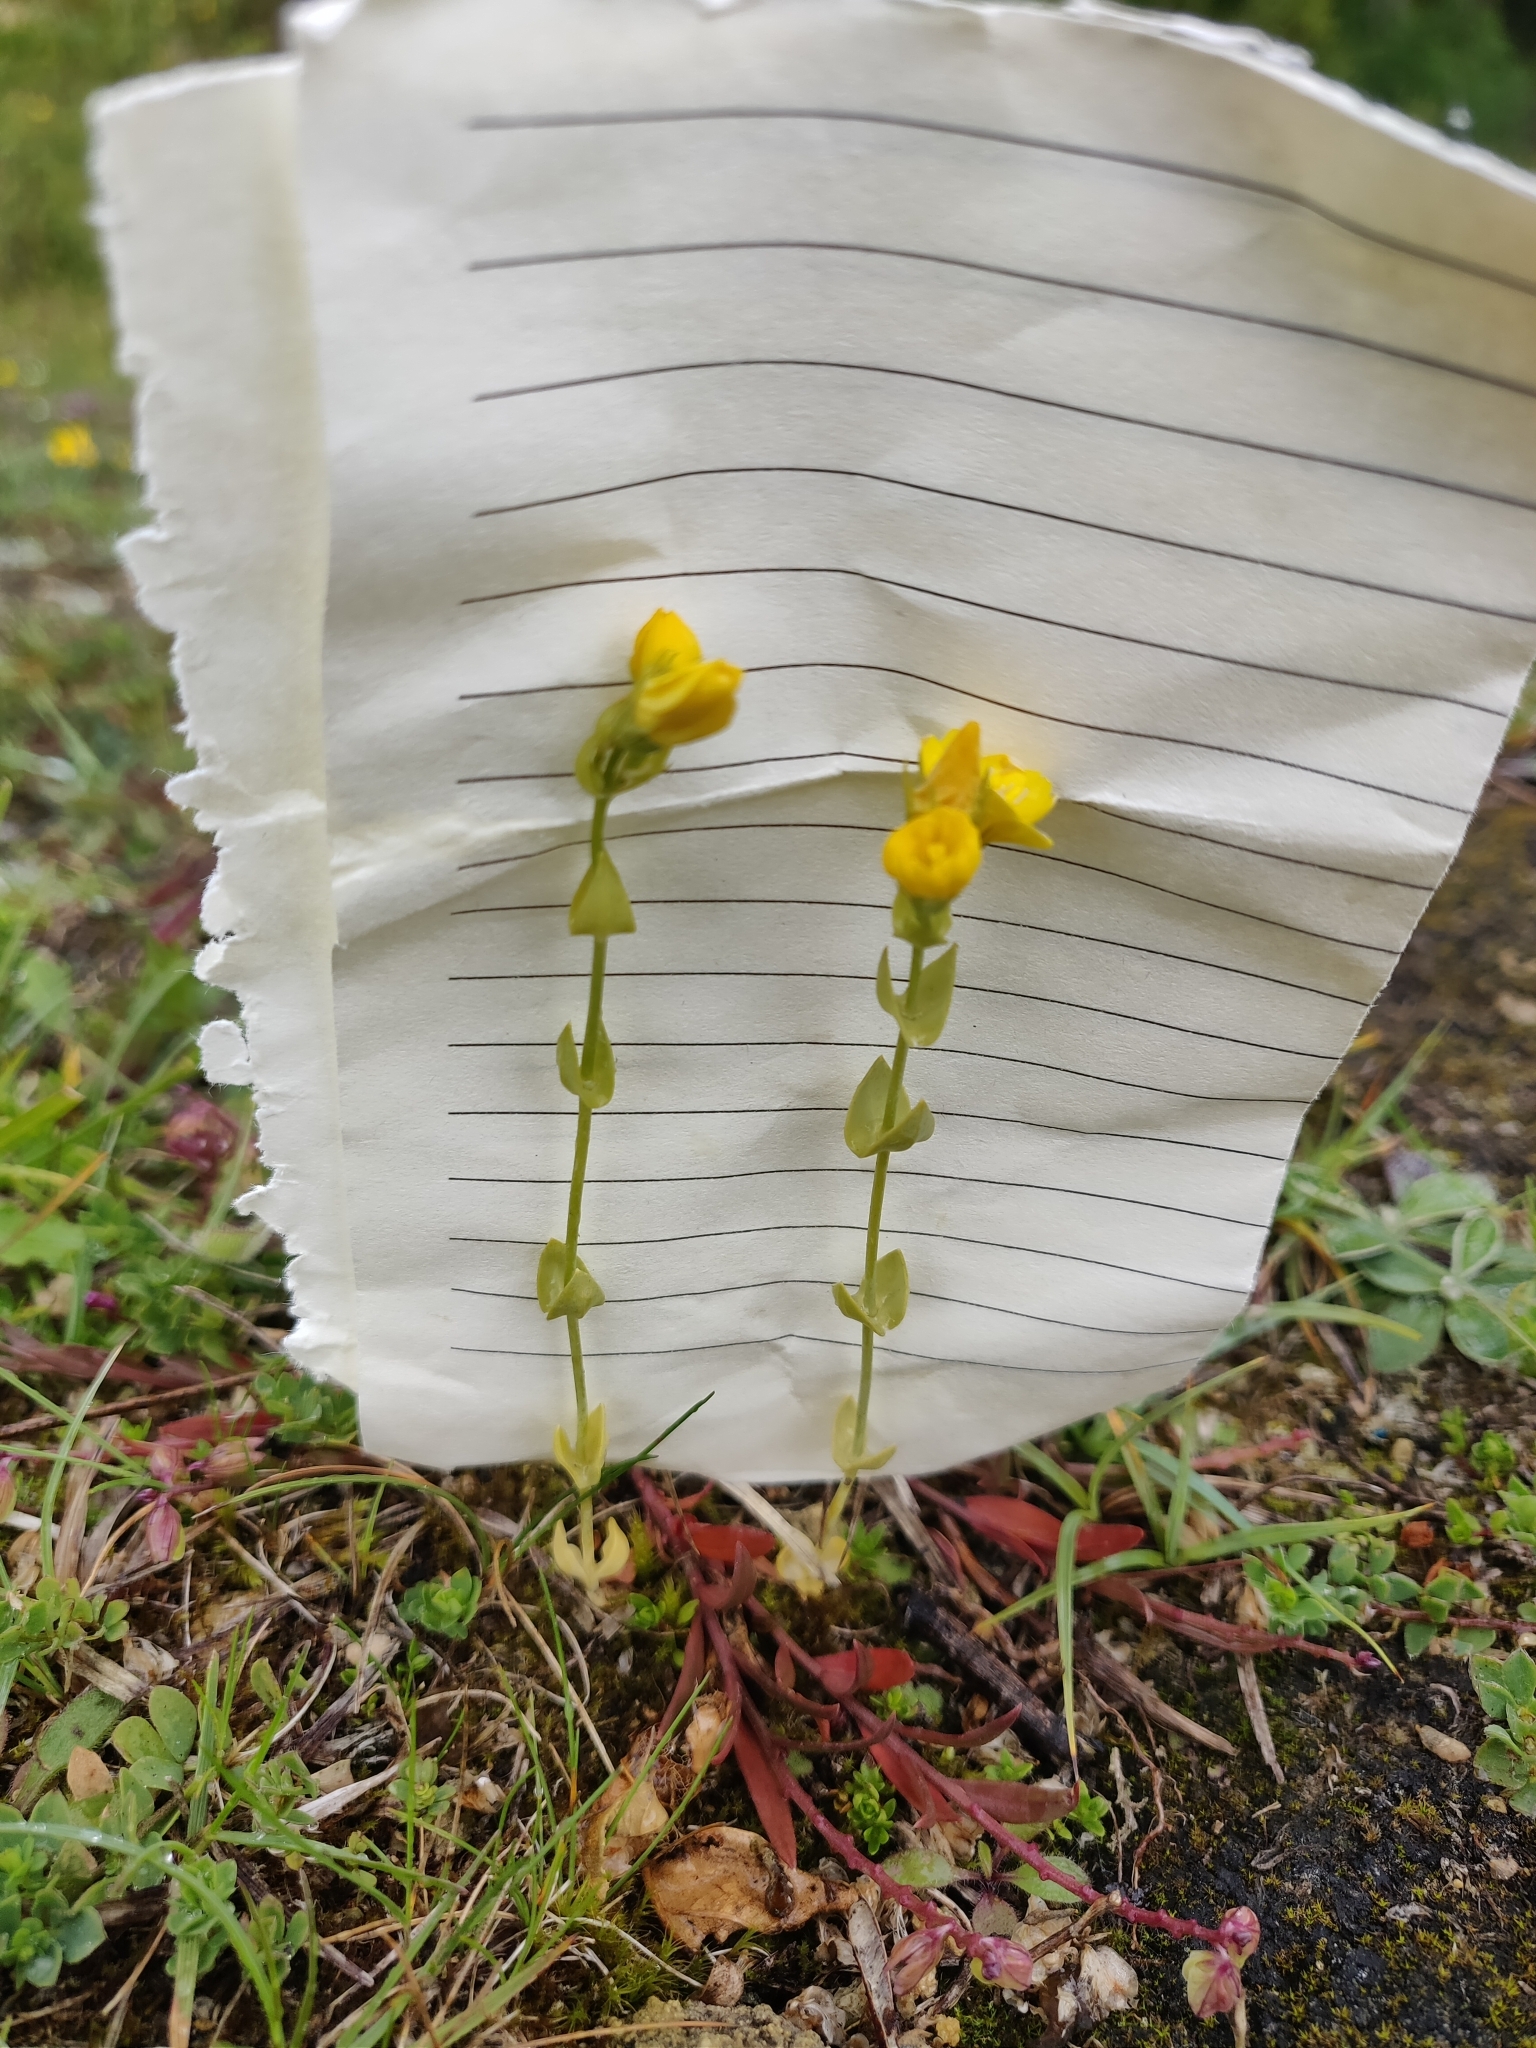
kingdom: Plantae
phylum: Tracheophyta
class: Magnoliopsida
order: Gentianales
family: Gentianaceae
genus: Blackstonia
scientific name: Blackstonia perfoliata
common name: Yellow-wort
